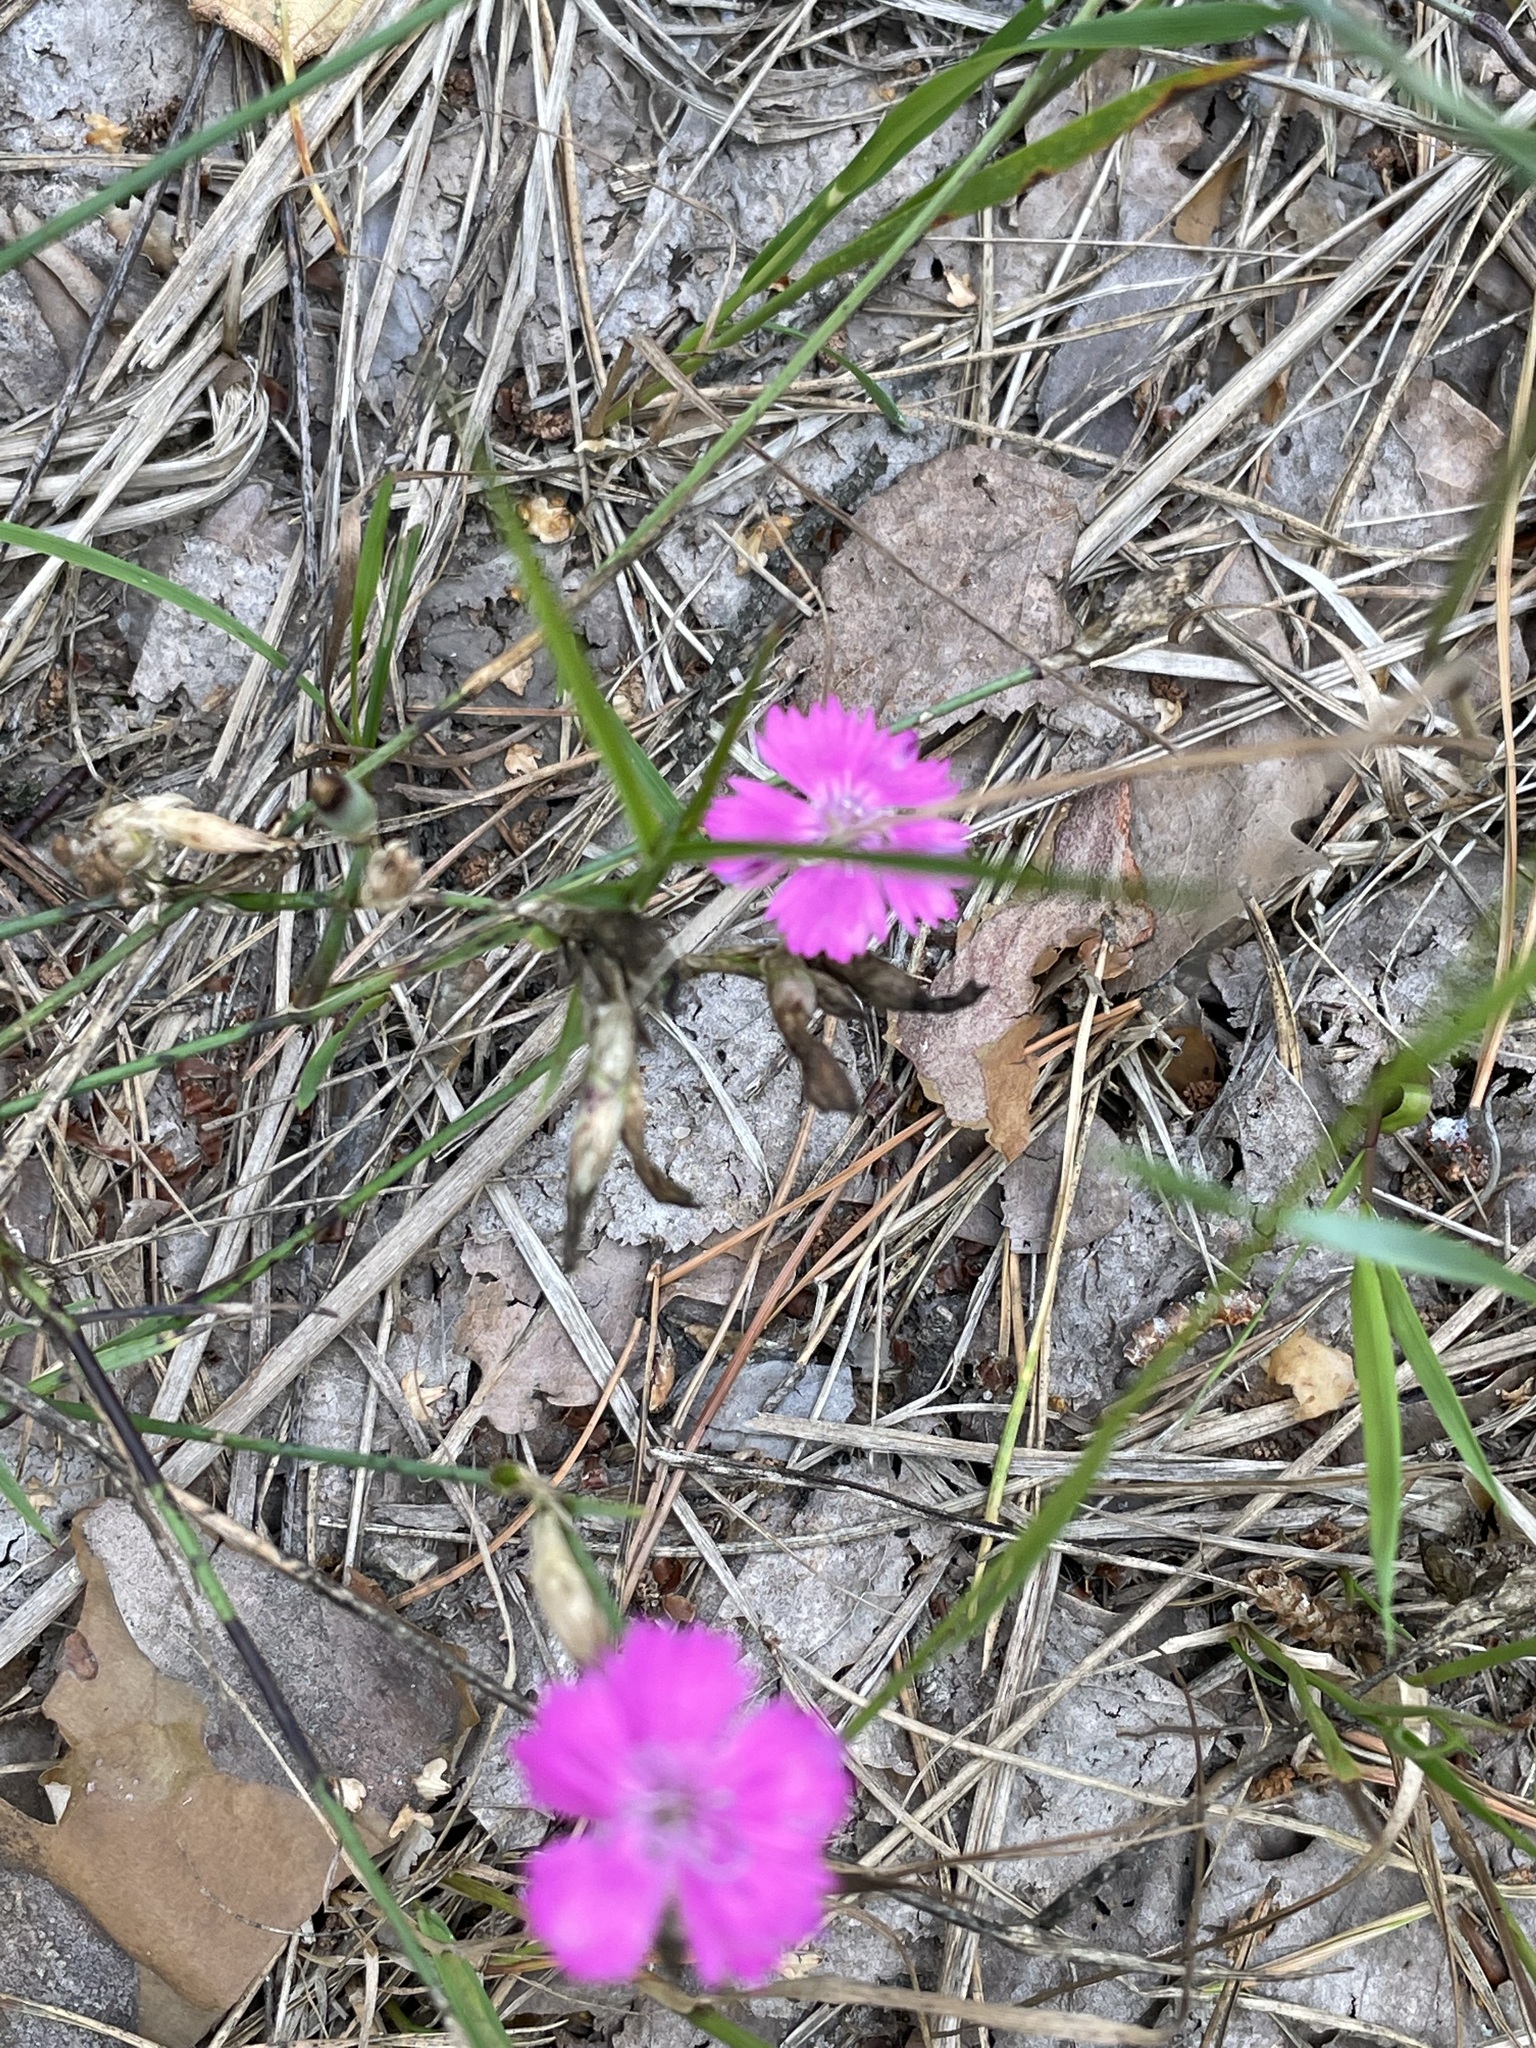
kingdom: Plantae
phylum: Tracheophyta
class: Magnoliopsida
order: Caryophyllales
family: Caryophyllaceae
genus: Dianthus
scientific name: Dianthus borbasii
